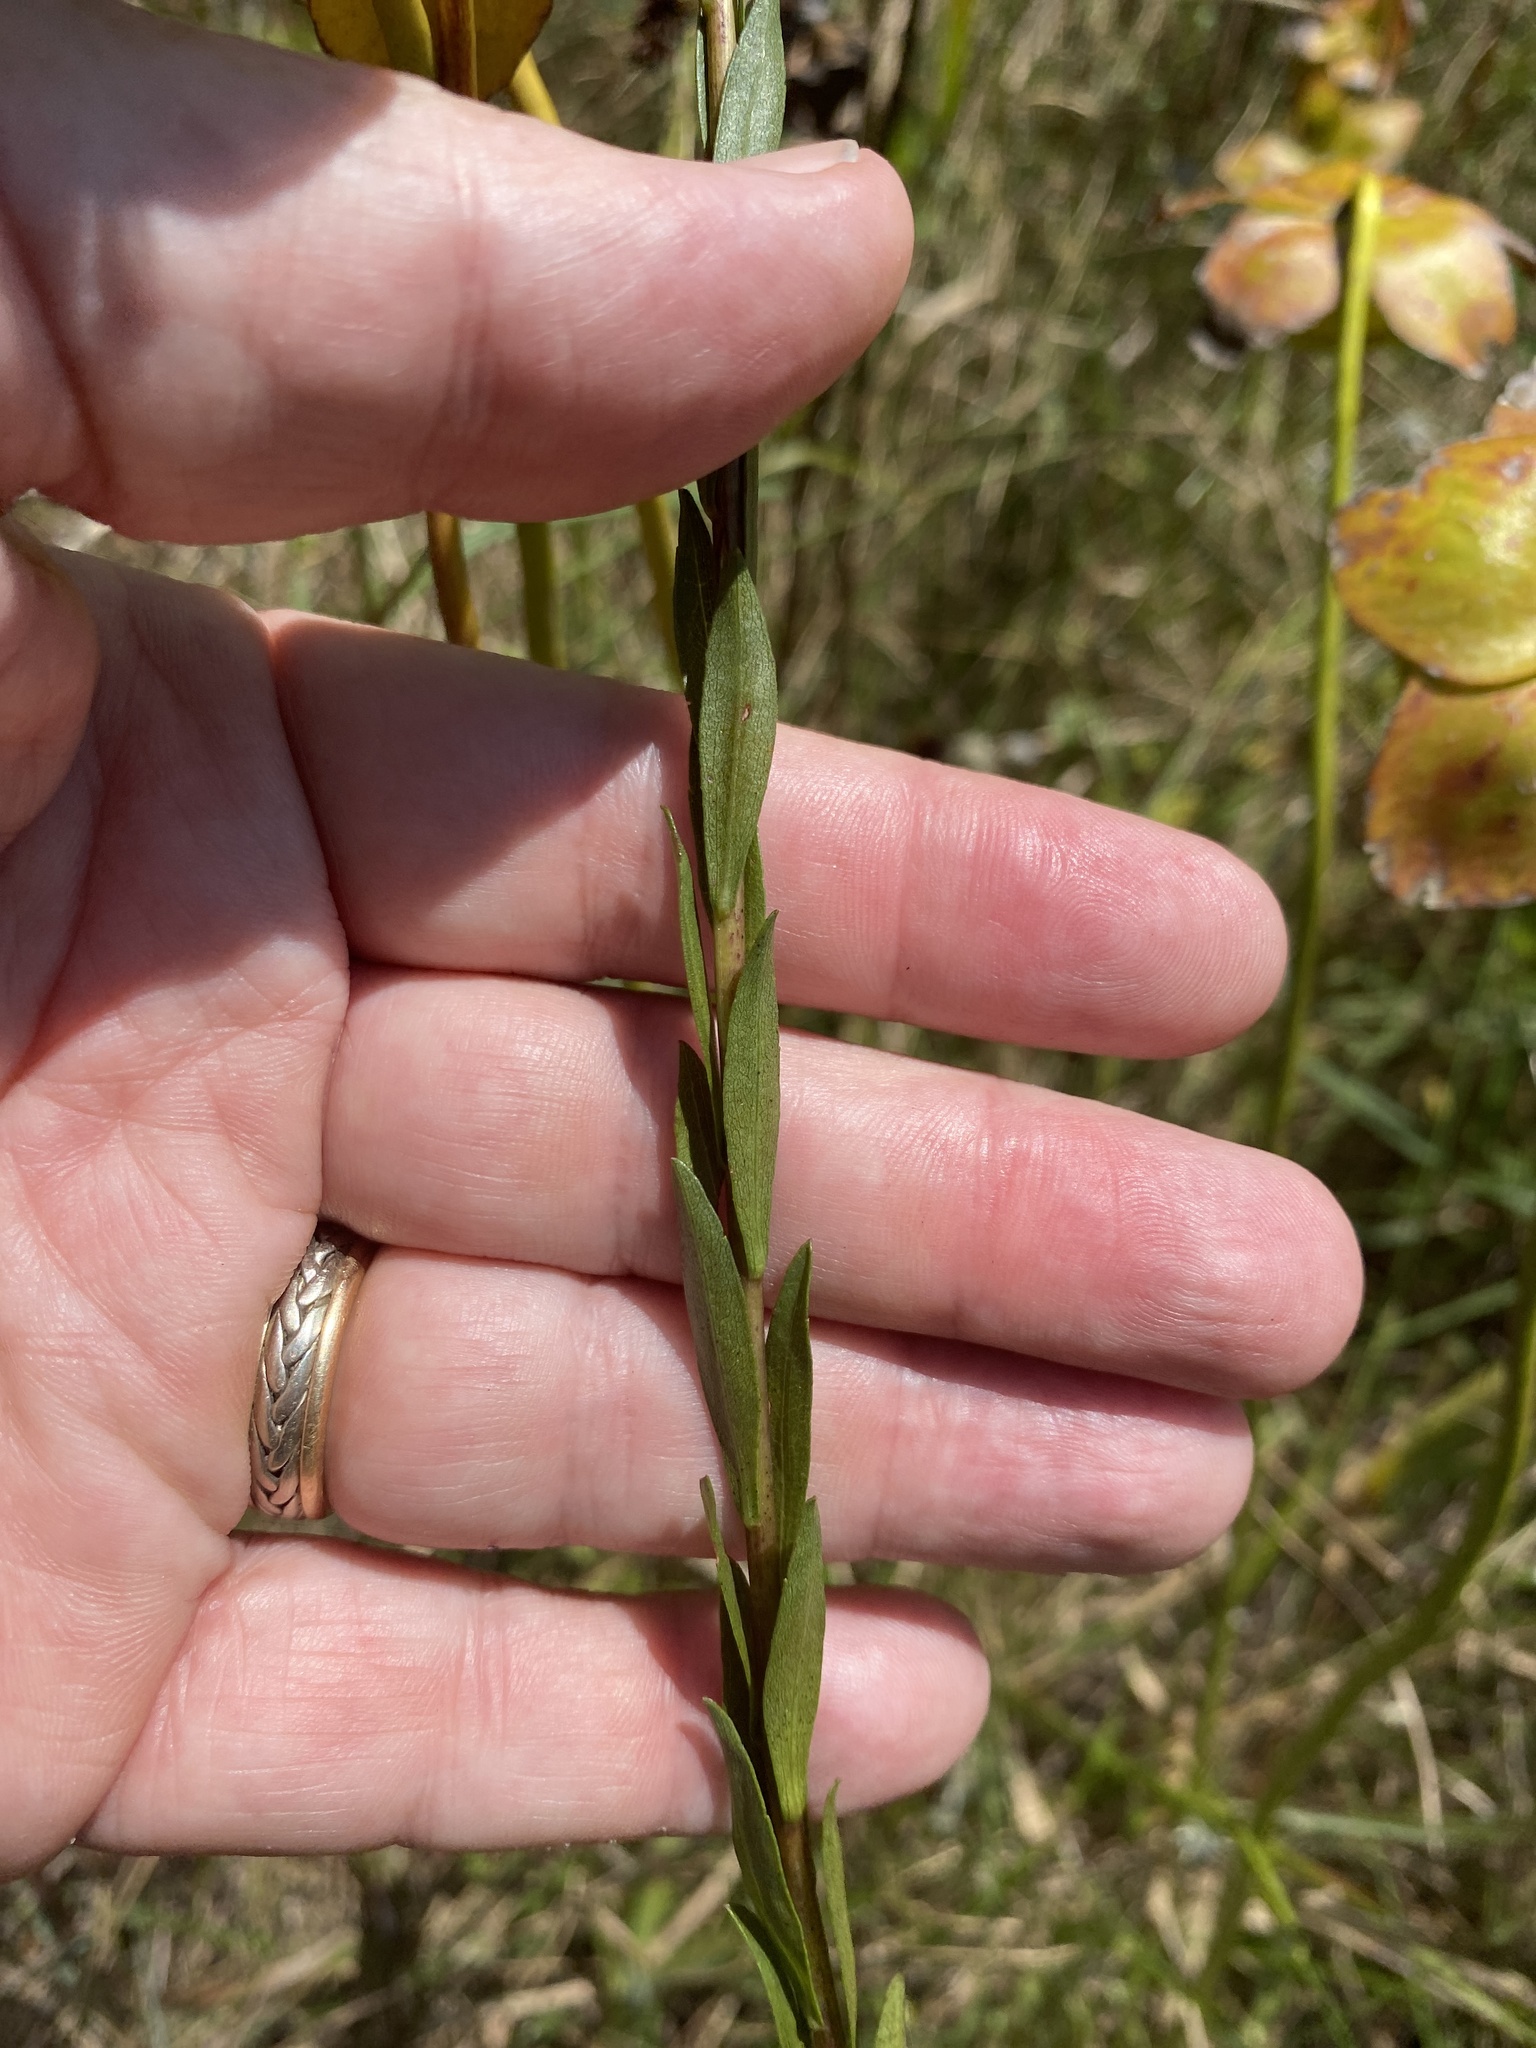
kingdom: Plantae
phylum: Tracheophyta
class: Magnoliopsida
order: Asterales
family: Asteraceae
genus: Solidago
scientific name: Solidago gracillima
